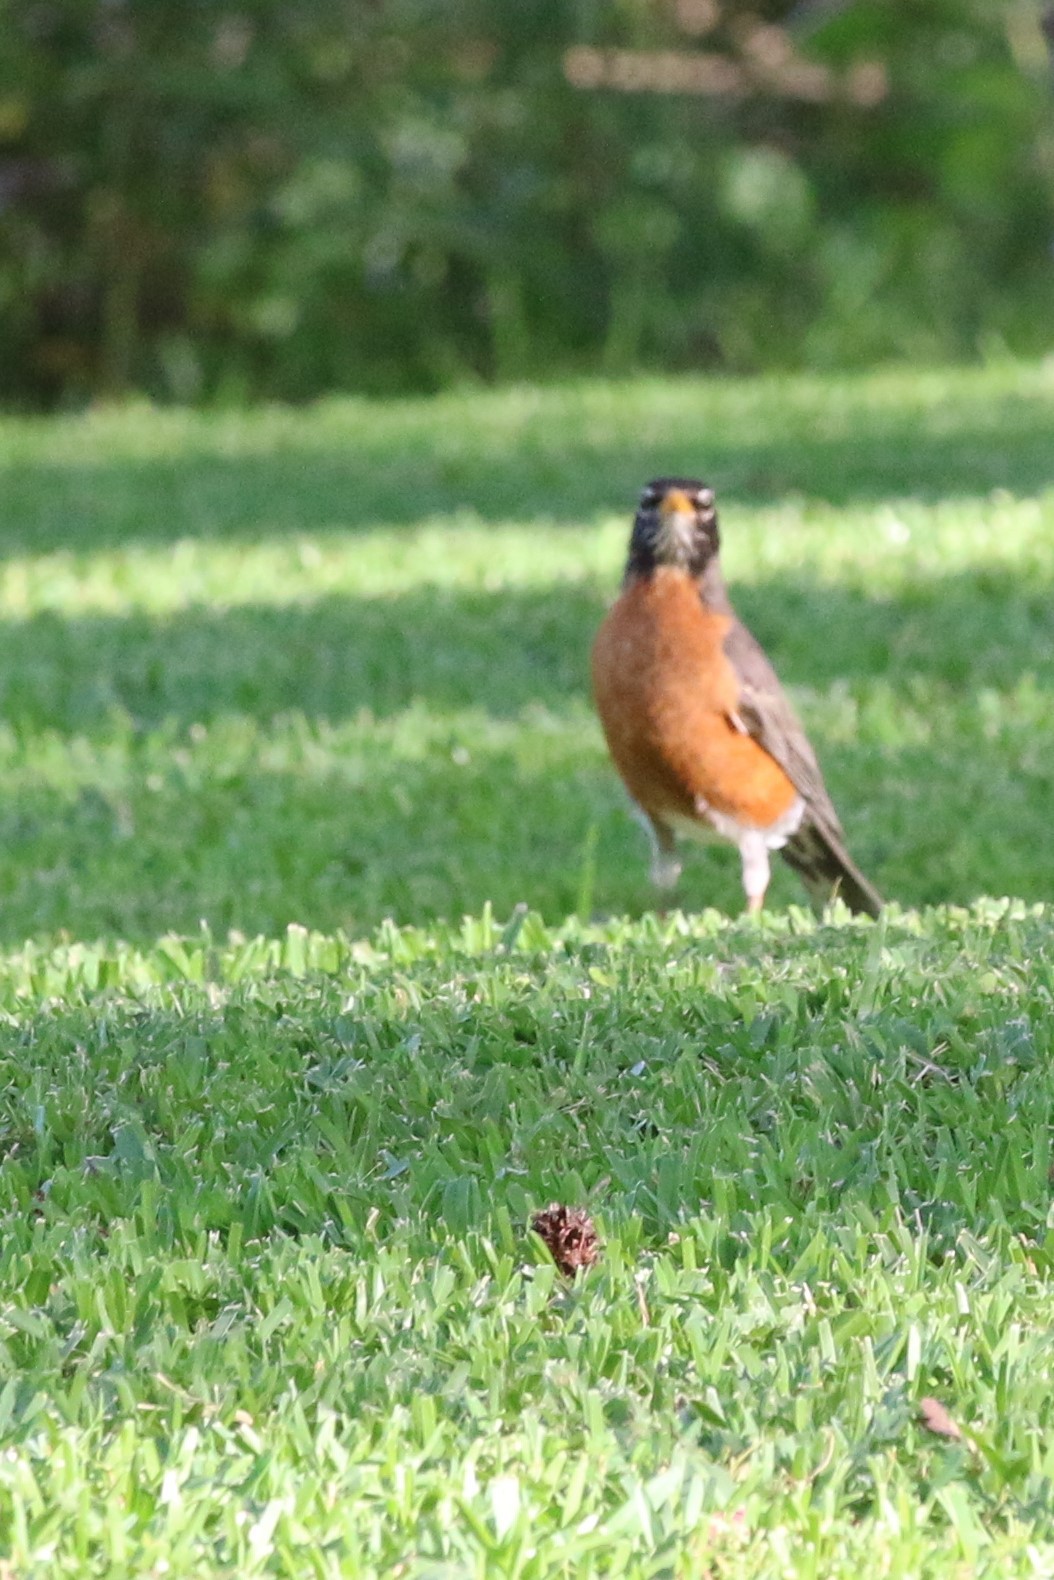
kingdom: Animalia
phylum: Chordata
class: Aves
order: Passeriformes
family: Turdidae
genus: Turdus
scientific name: Turdus migratorius
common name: American robin
